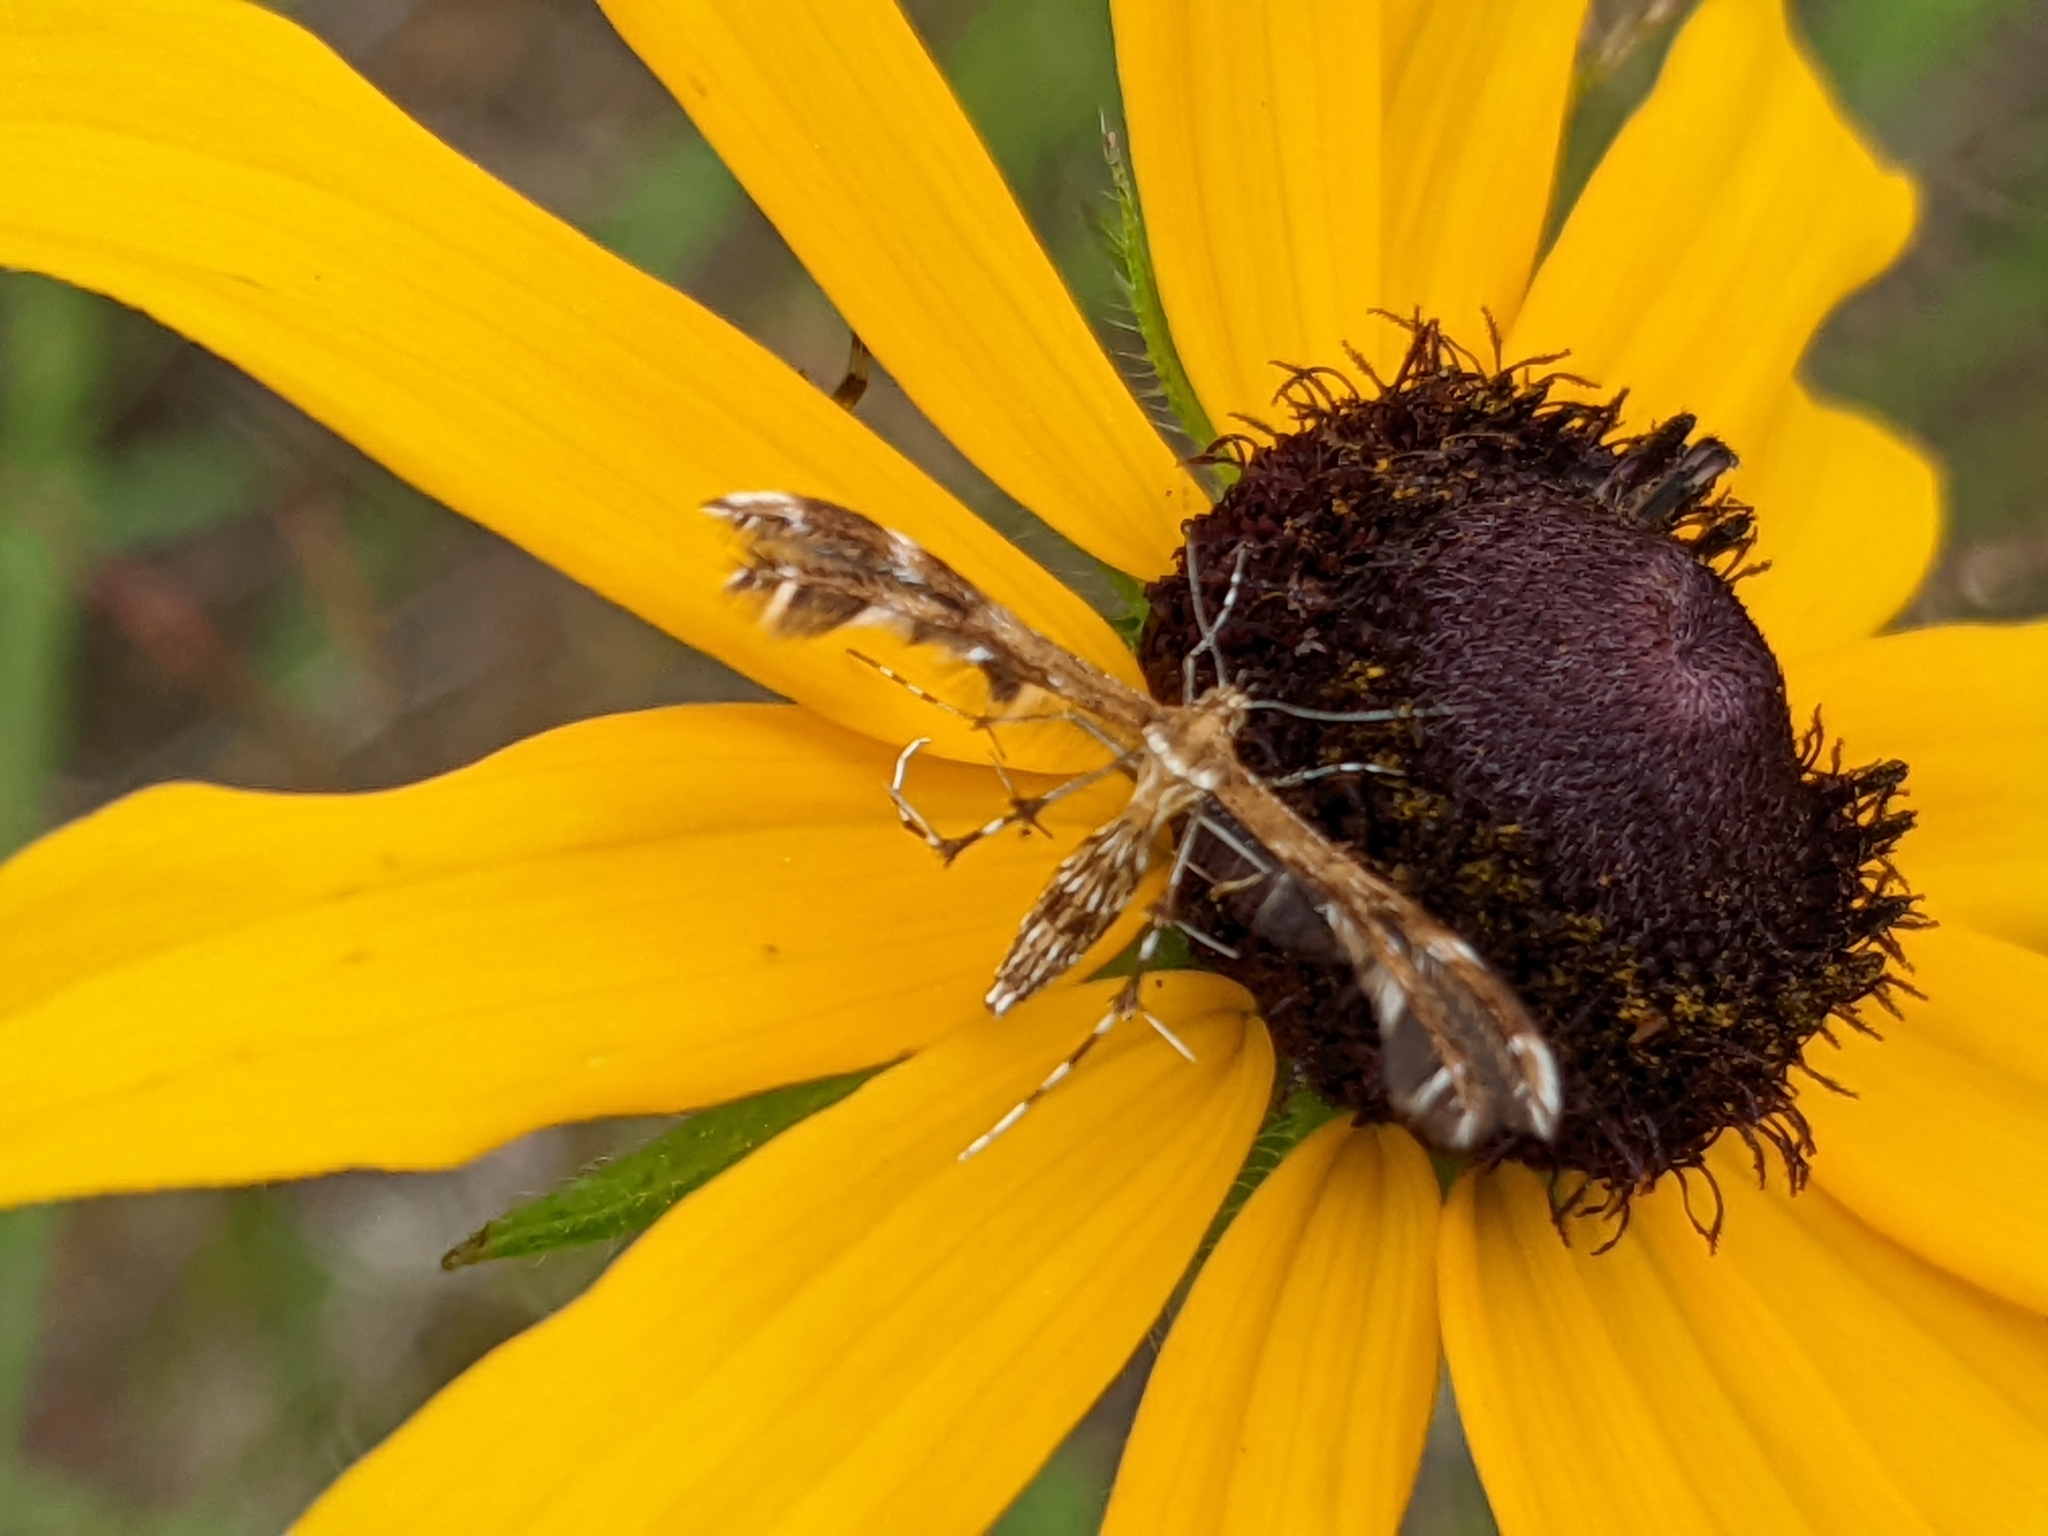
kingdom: Animalia
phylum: Arthropoda
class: Insecta
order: Lepidoptera
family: Pterophoridae
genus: Dejongia
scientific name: Dejongia lobidactylus
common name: Lobed plume moth
